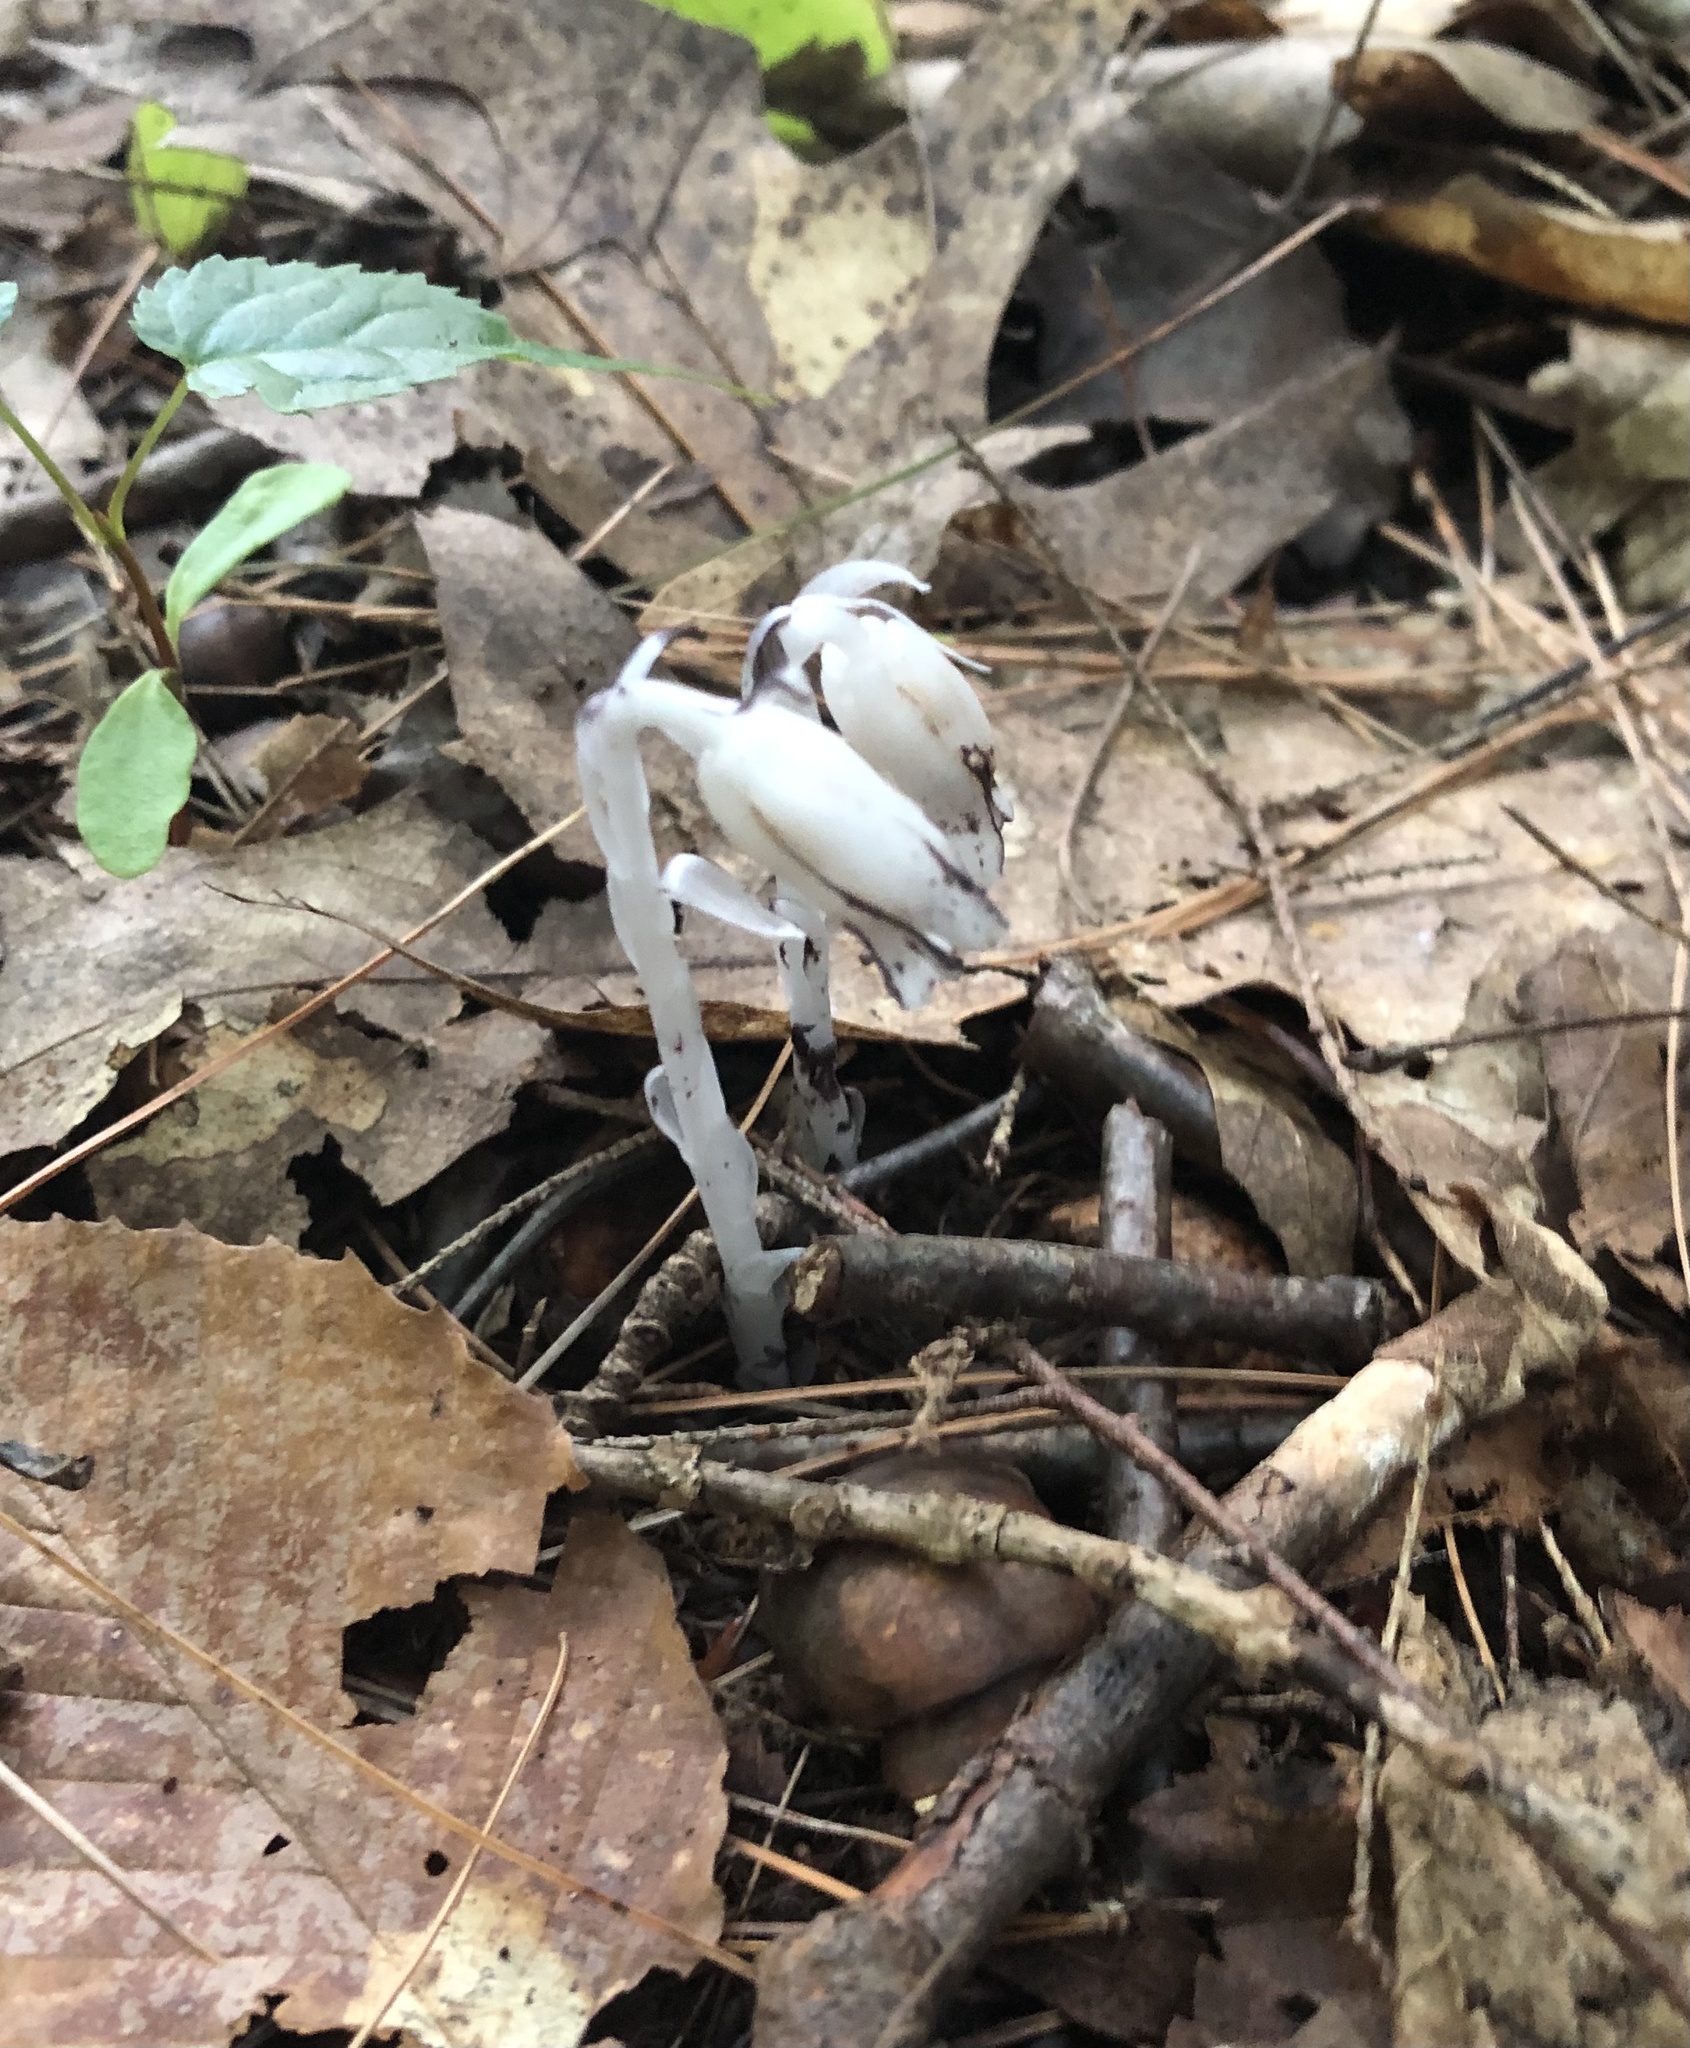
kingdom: Plantae
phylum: Tracheophyta
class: Magnoliopsida
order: Ericales
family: Ericaceae
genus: Monotropa
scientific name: Monotropa uniflora
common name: Convulsion root
